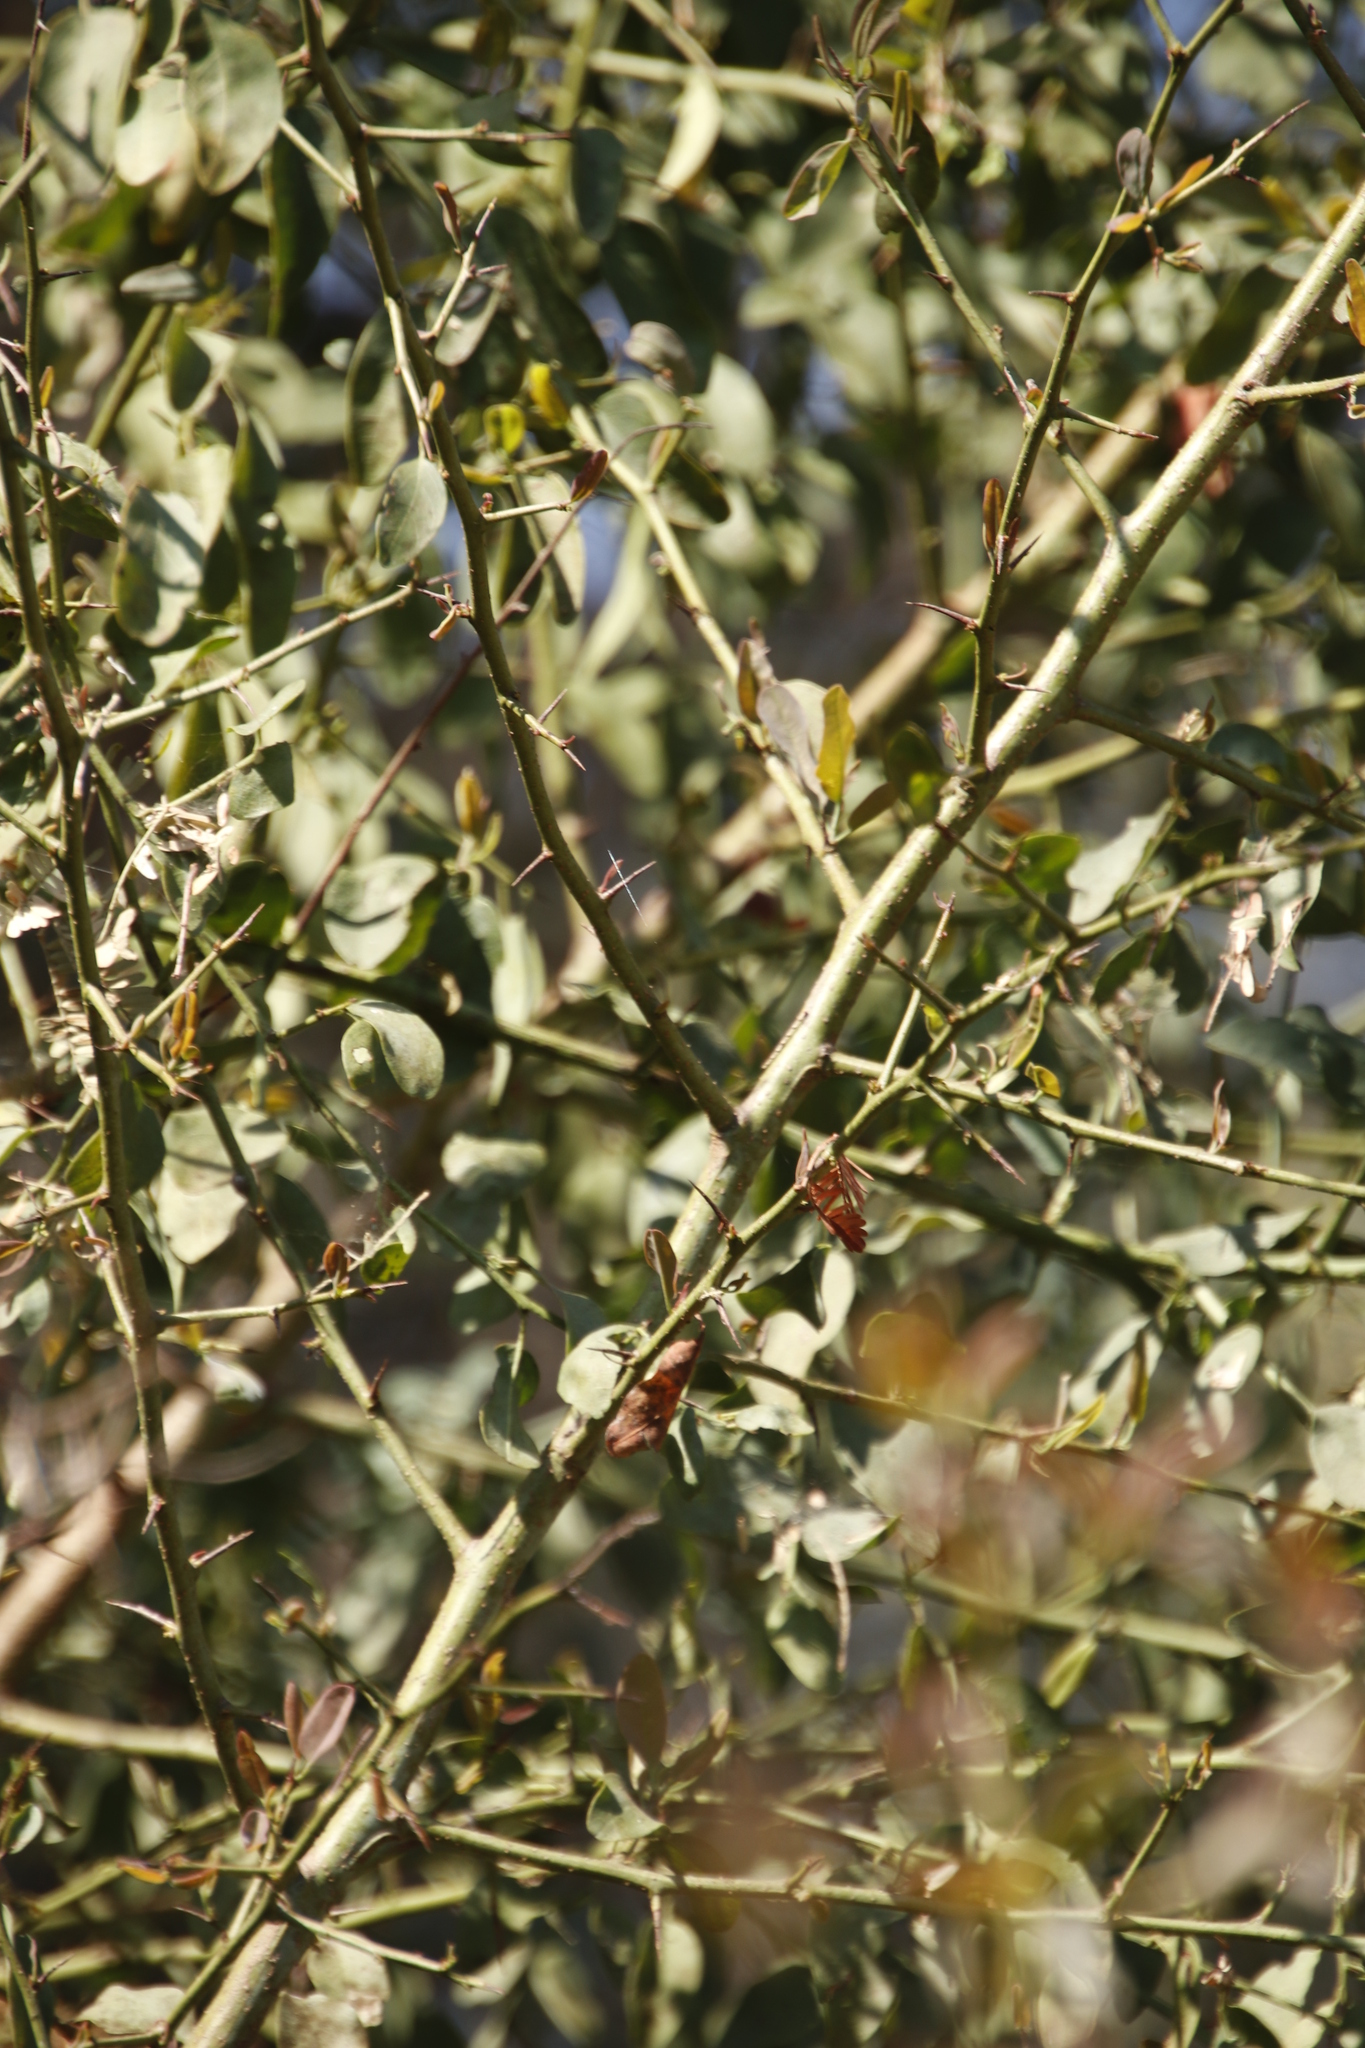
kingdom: Plantae
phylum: Tracheophyta
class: Magnoliopsida
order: Zygophyllales
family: Zygophyllaceae
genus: Balanites
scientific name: Balanites aegyptiaca
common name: Balanites
